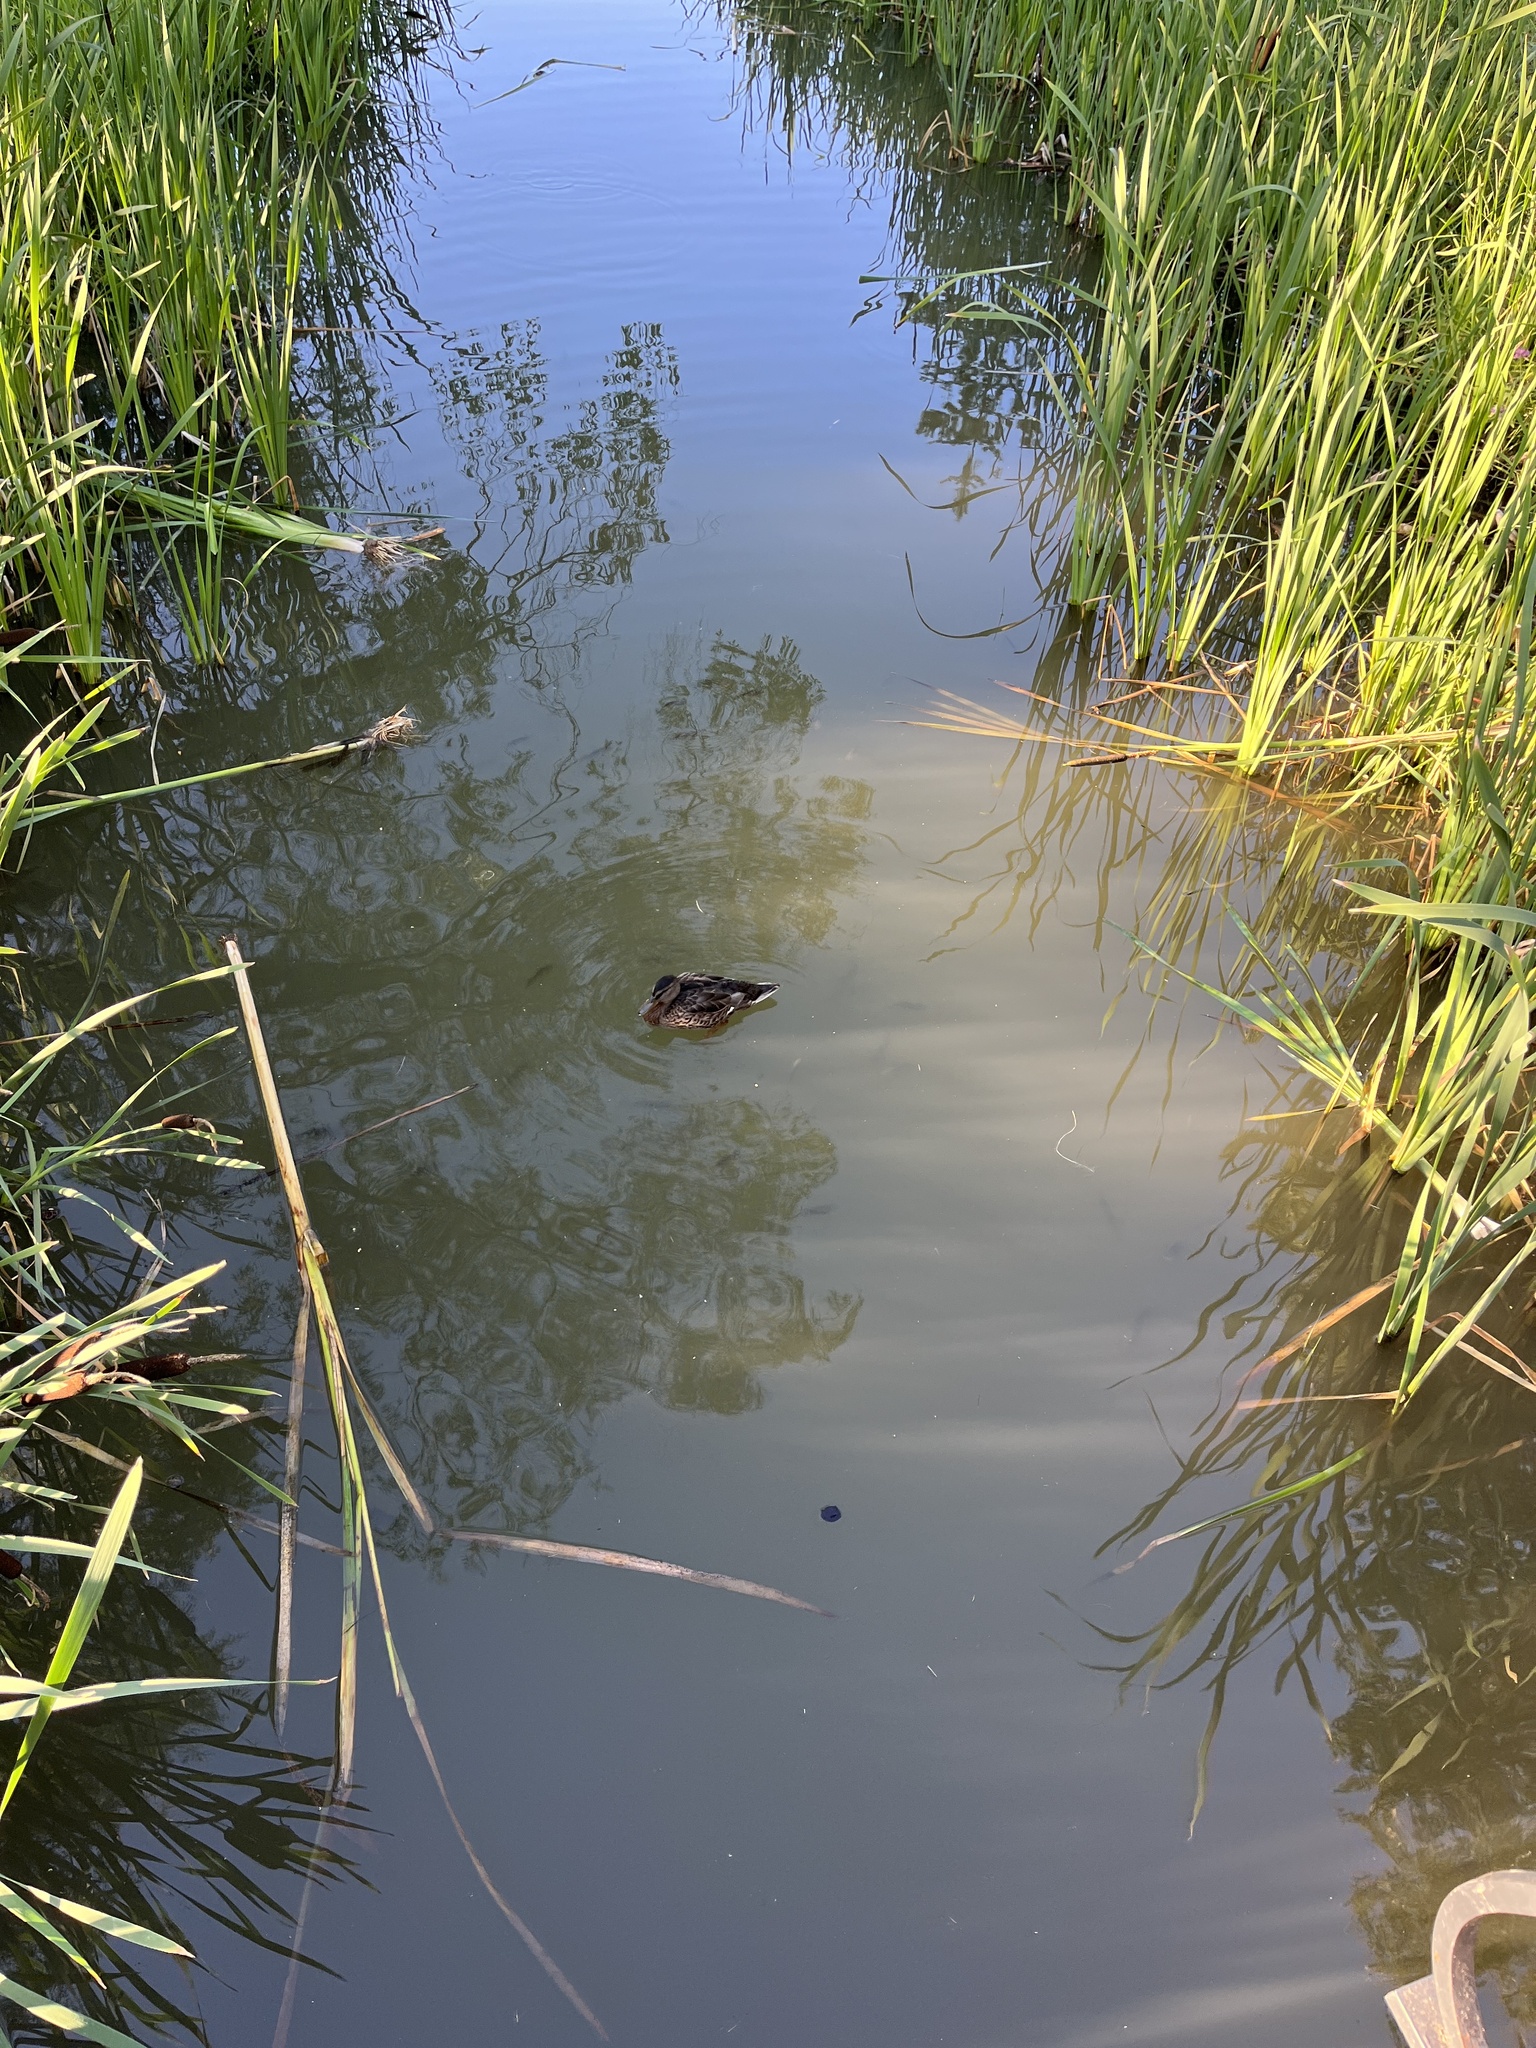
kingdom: Animalia
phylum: Chordata
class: Aves
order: Anseriformes
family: Anatidae
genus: Anas
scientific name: Anas platyrhynchos
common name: Mallard
